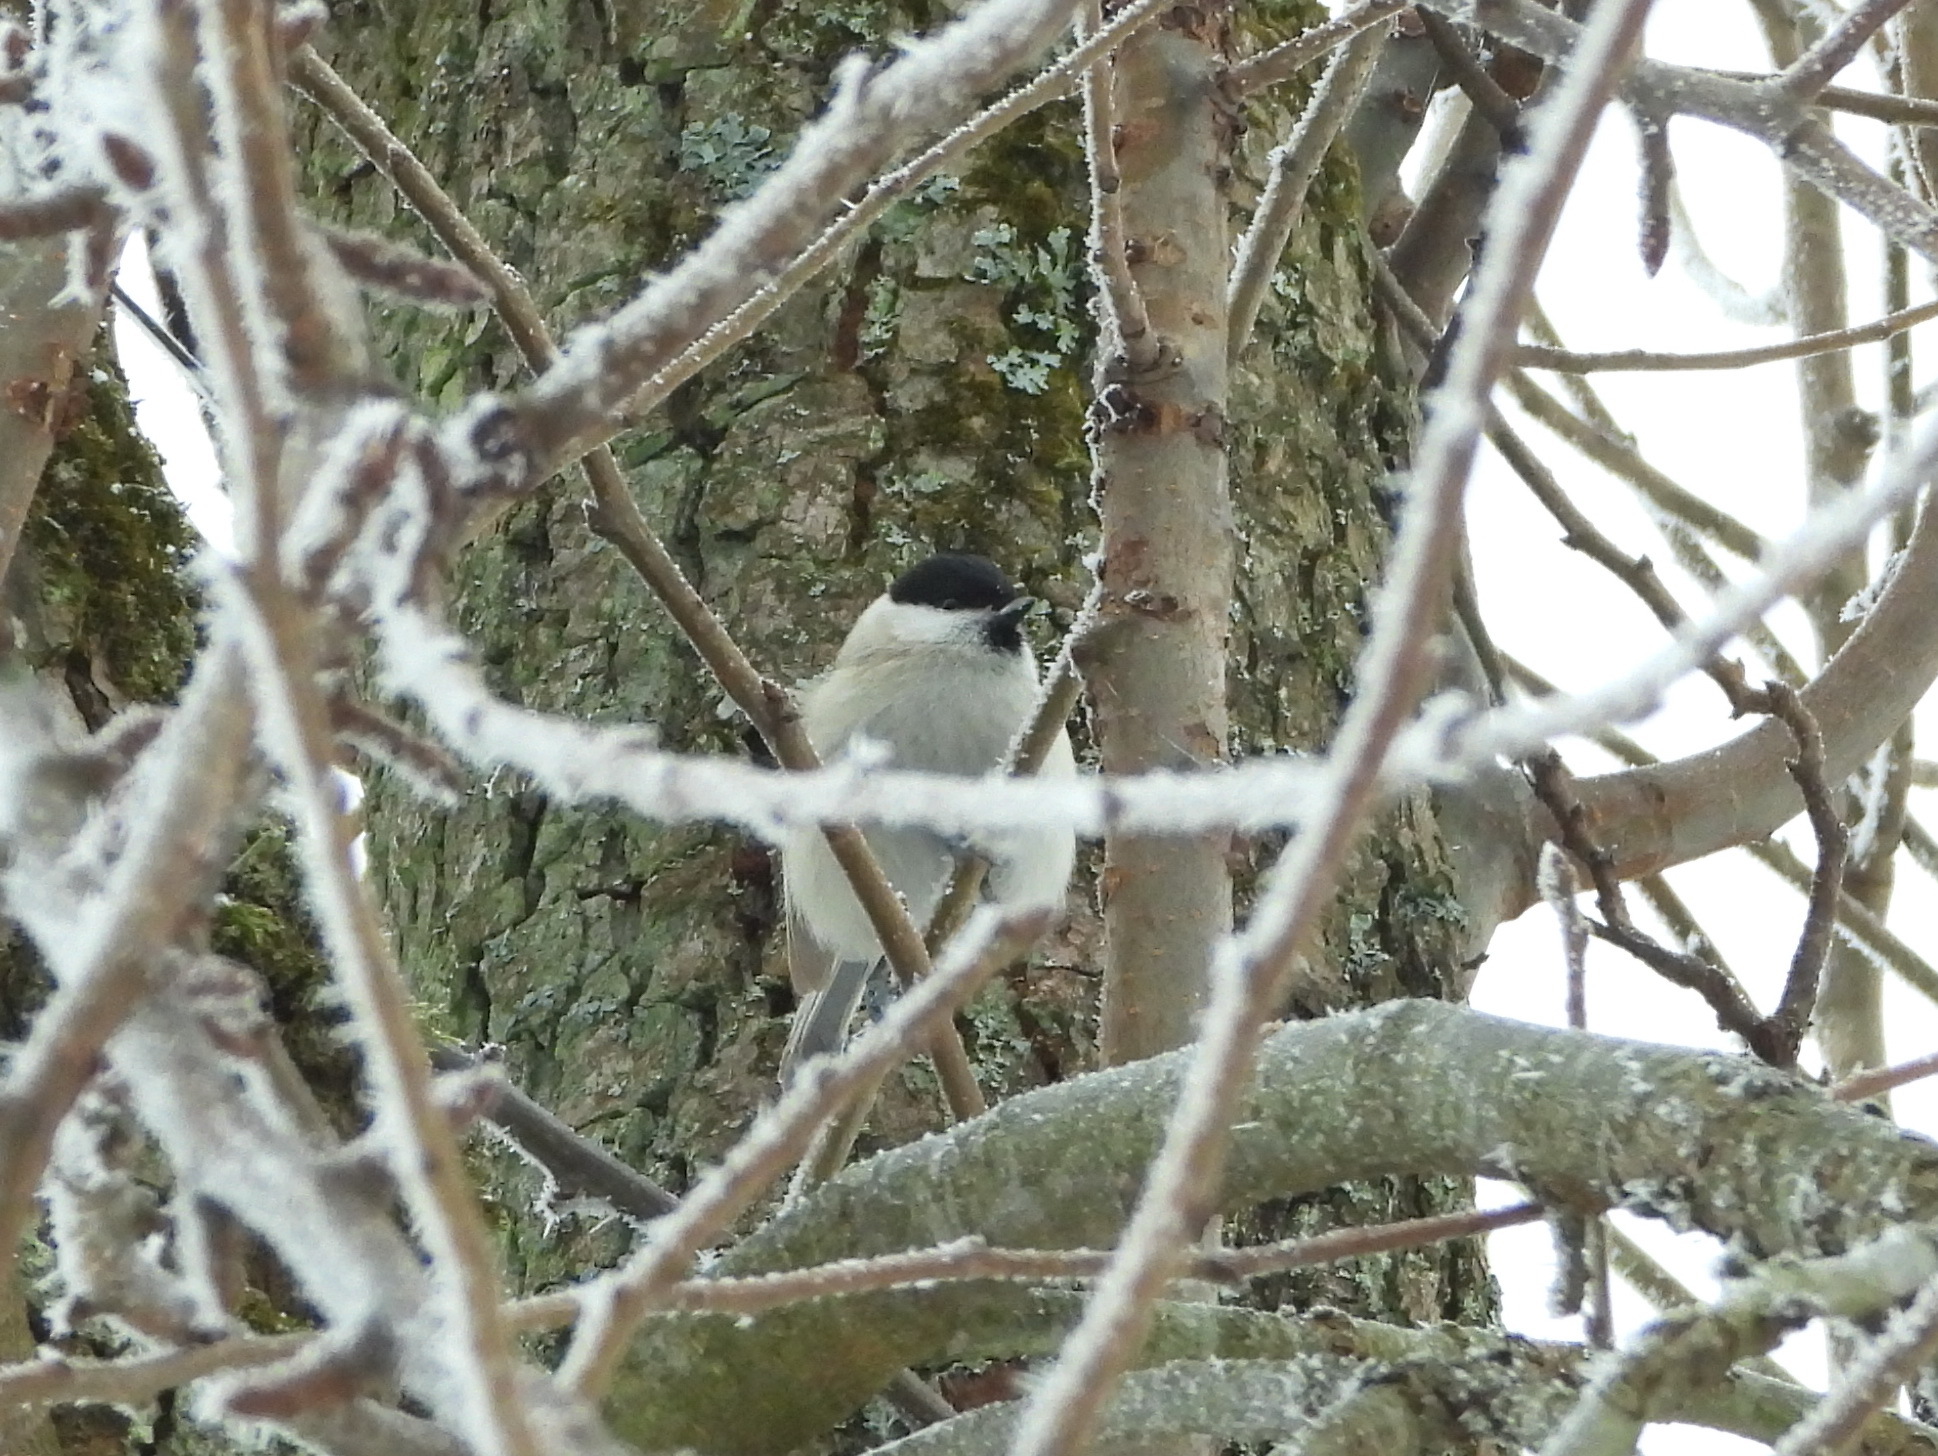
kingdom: Animalia
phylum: Chordata
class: Aves
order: Passeriformes
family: Paridae
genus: Poecile
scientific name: Poecile palustris
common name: Marsh tit
